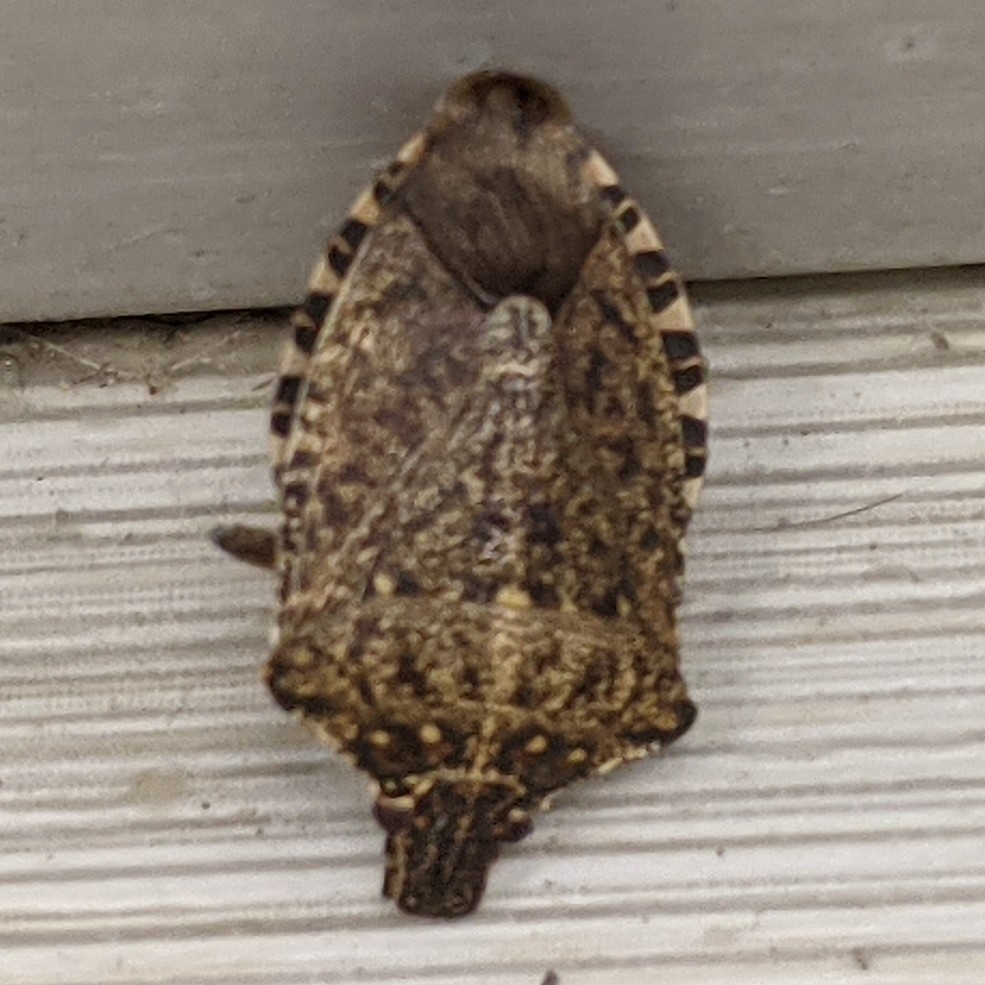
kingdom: Animalia
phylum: Arthropoda
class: Insecta
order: Hemiptera
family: Pentatomidae
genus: Halyomorpha
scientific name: Halyomorpha halys
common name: Brown marmorated stink bug
